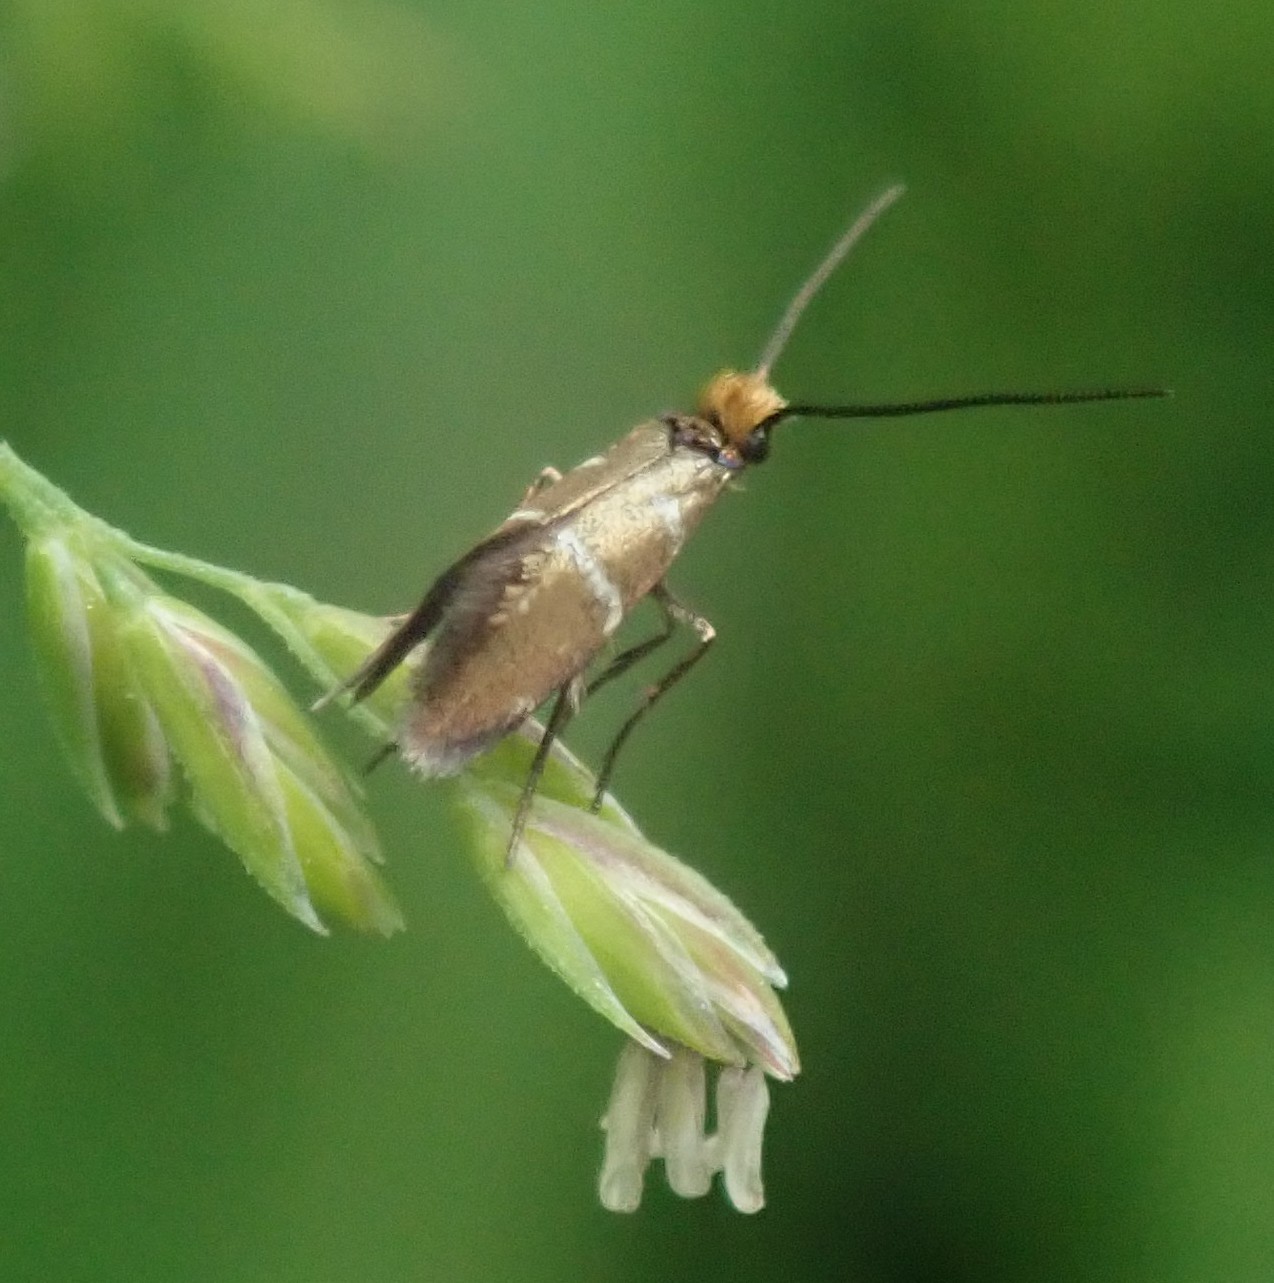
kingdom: Animalia
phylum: Arthropoda
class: Insecta
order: Lepidoptera
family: Micropterigidae
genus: Micropterix
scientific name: Micropterix aruncella
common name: White-barred gold
